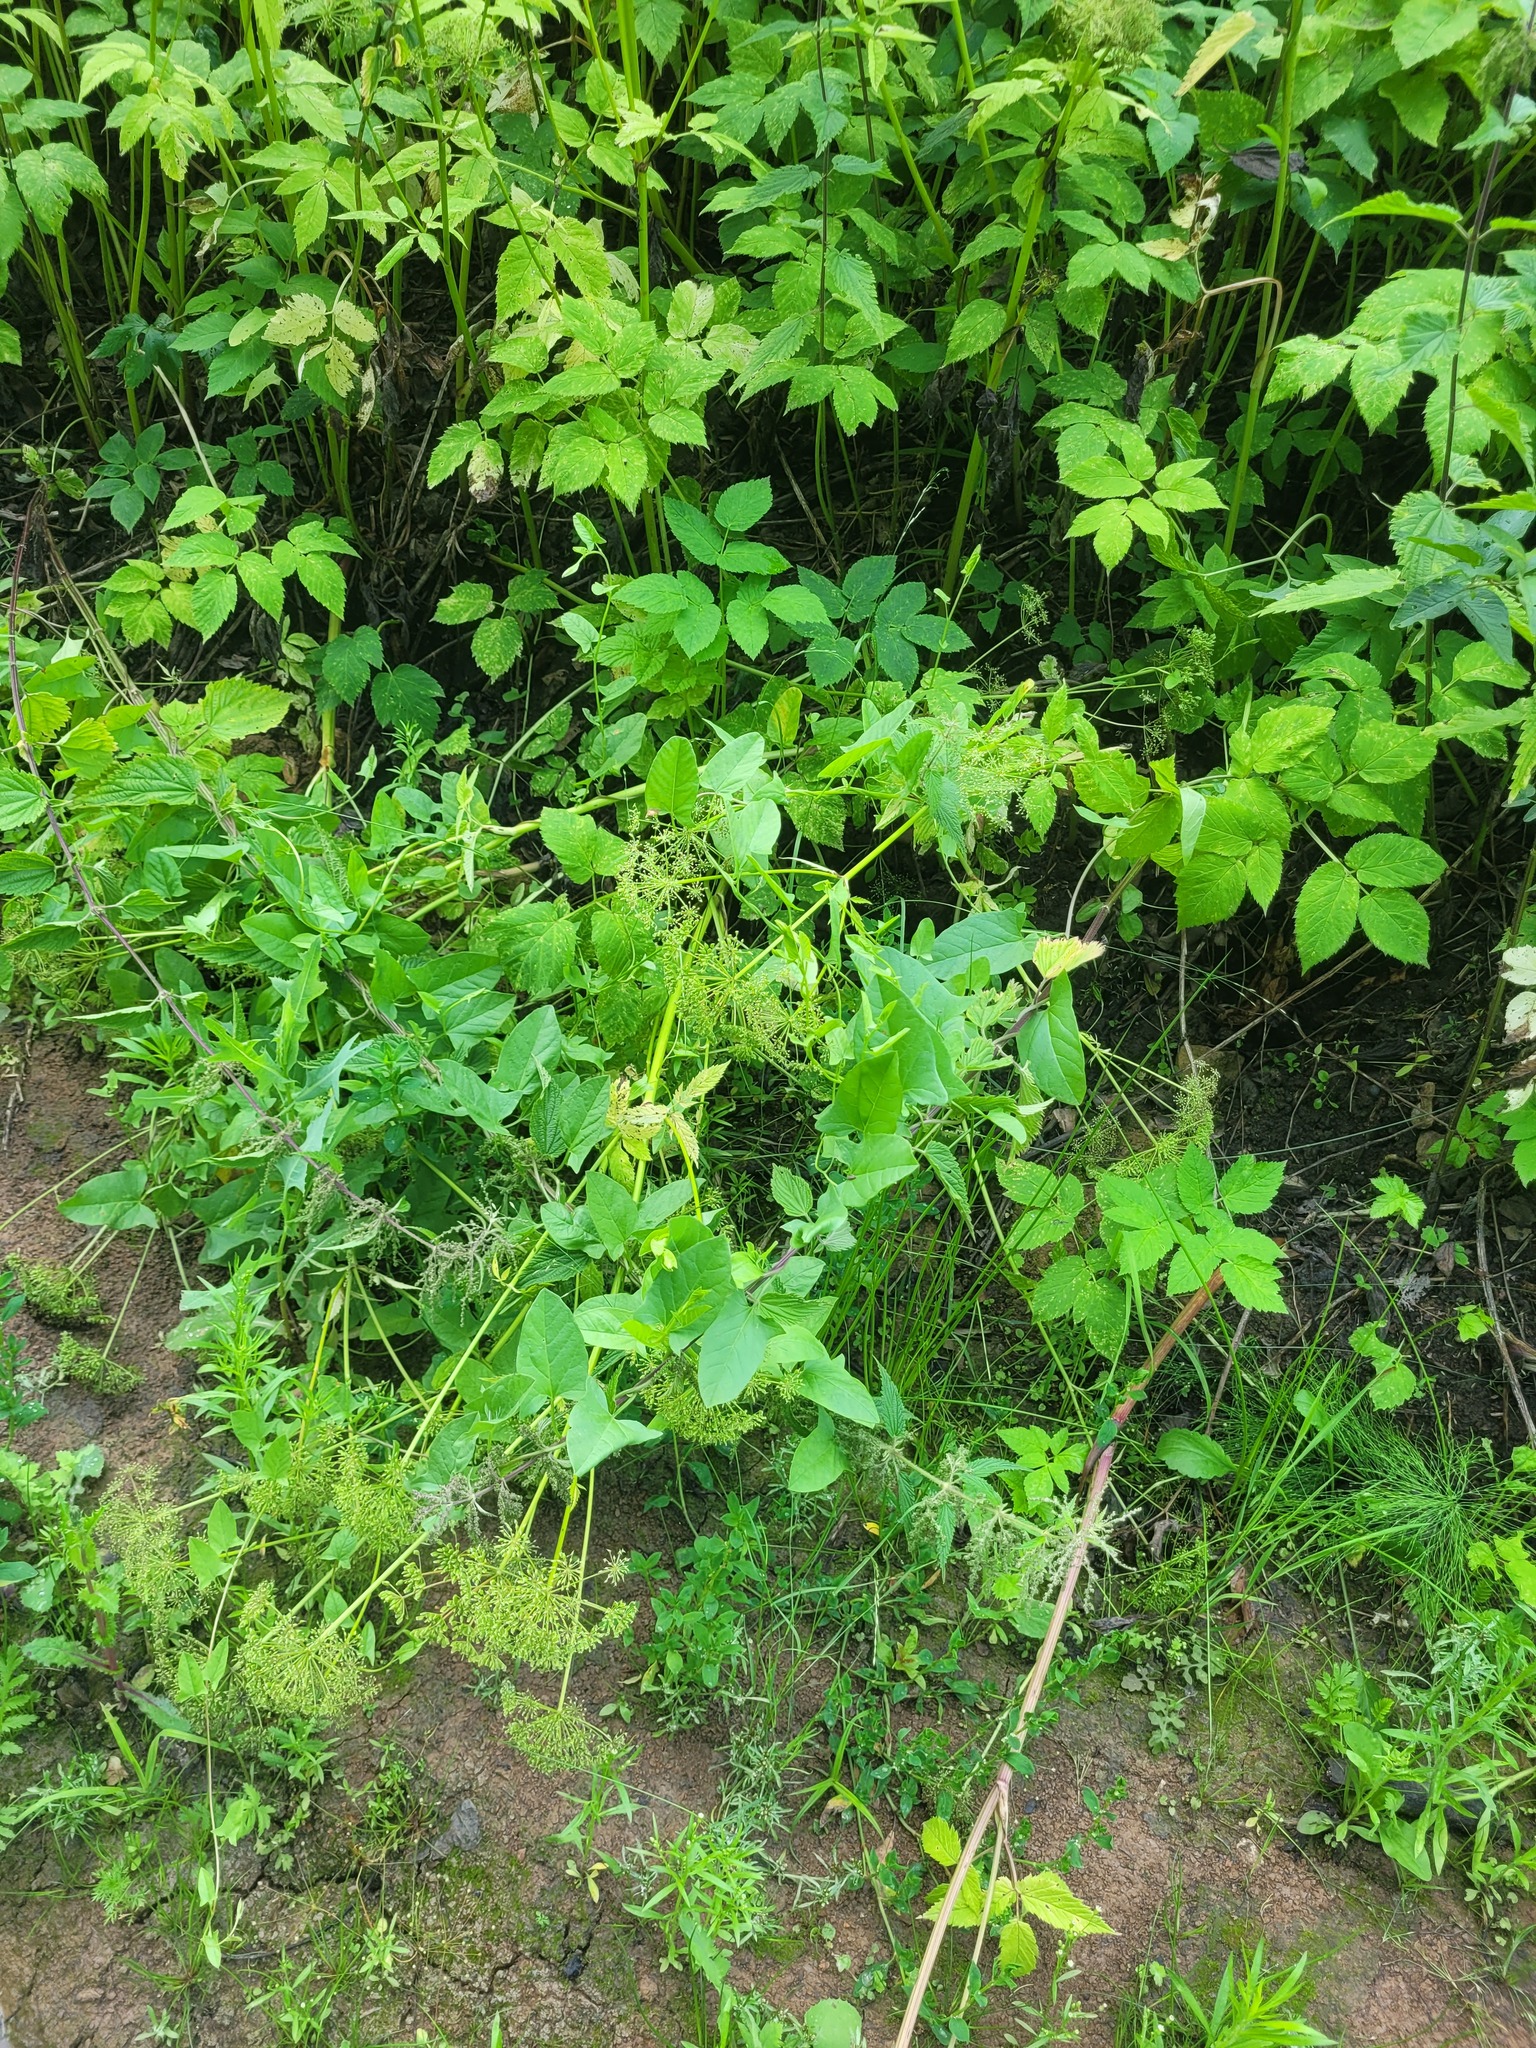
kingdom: Plantae
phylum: Tracheophyta
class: Magnoliopsida
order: Solanales
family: Convolvulaceae
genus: Convolvulus
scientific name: Convolvulus arvensis
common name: Field bindweed
